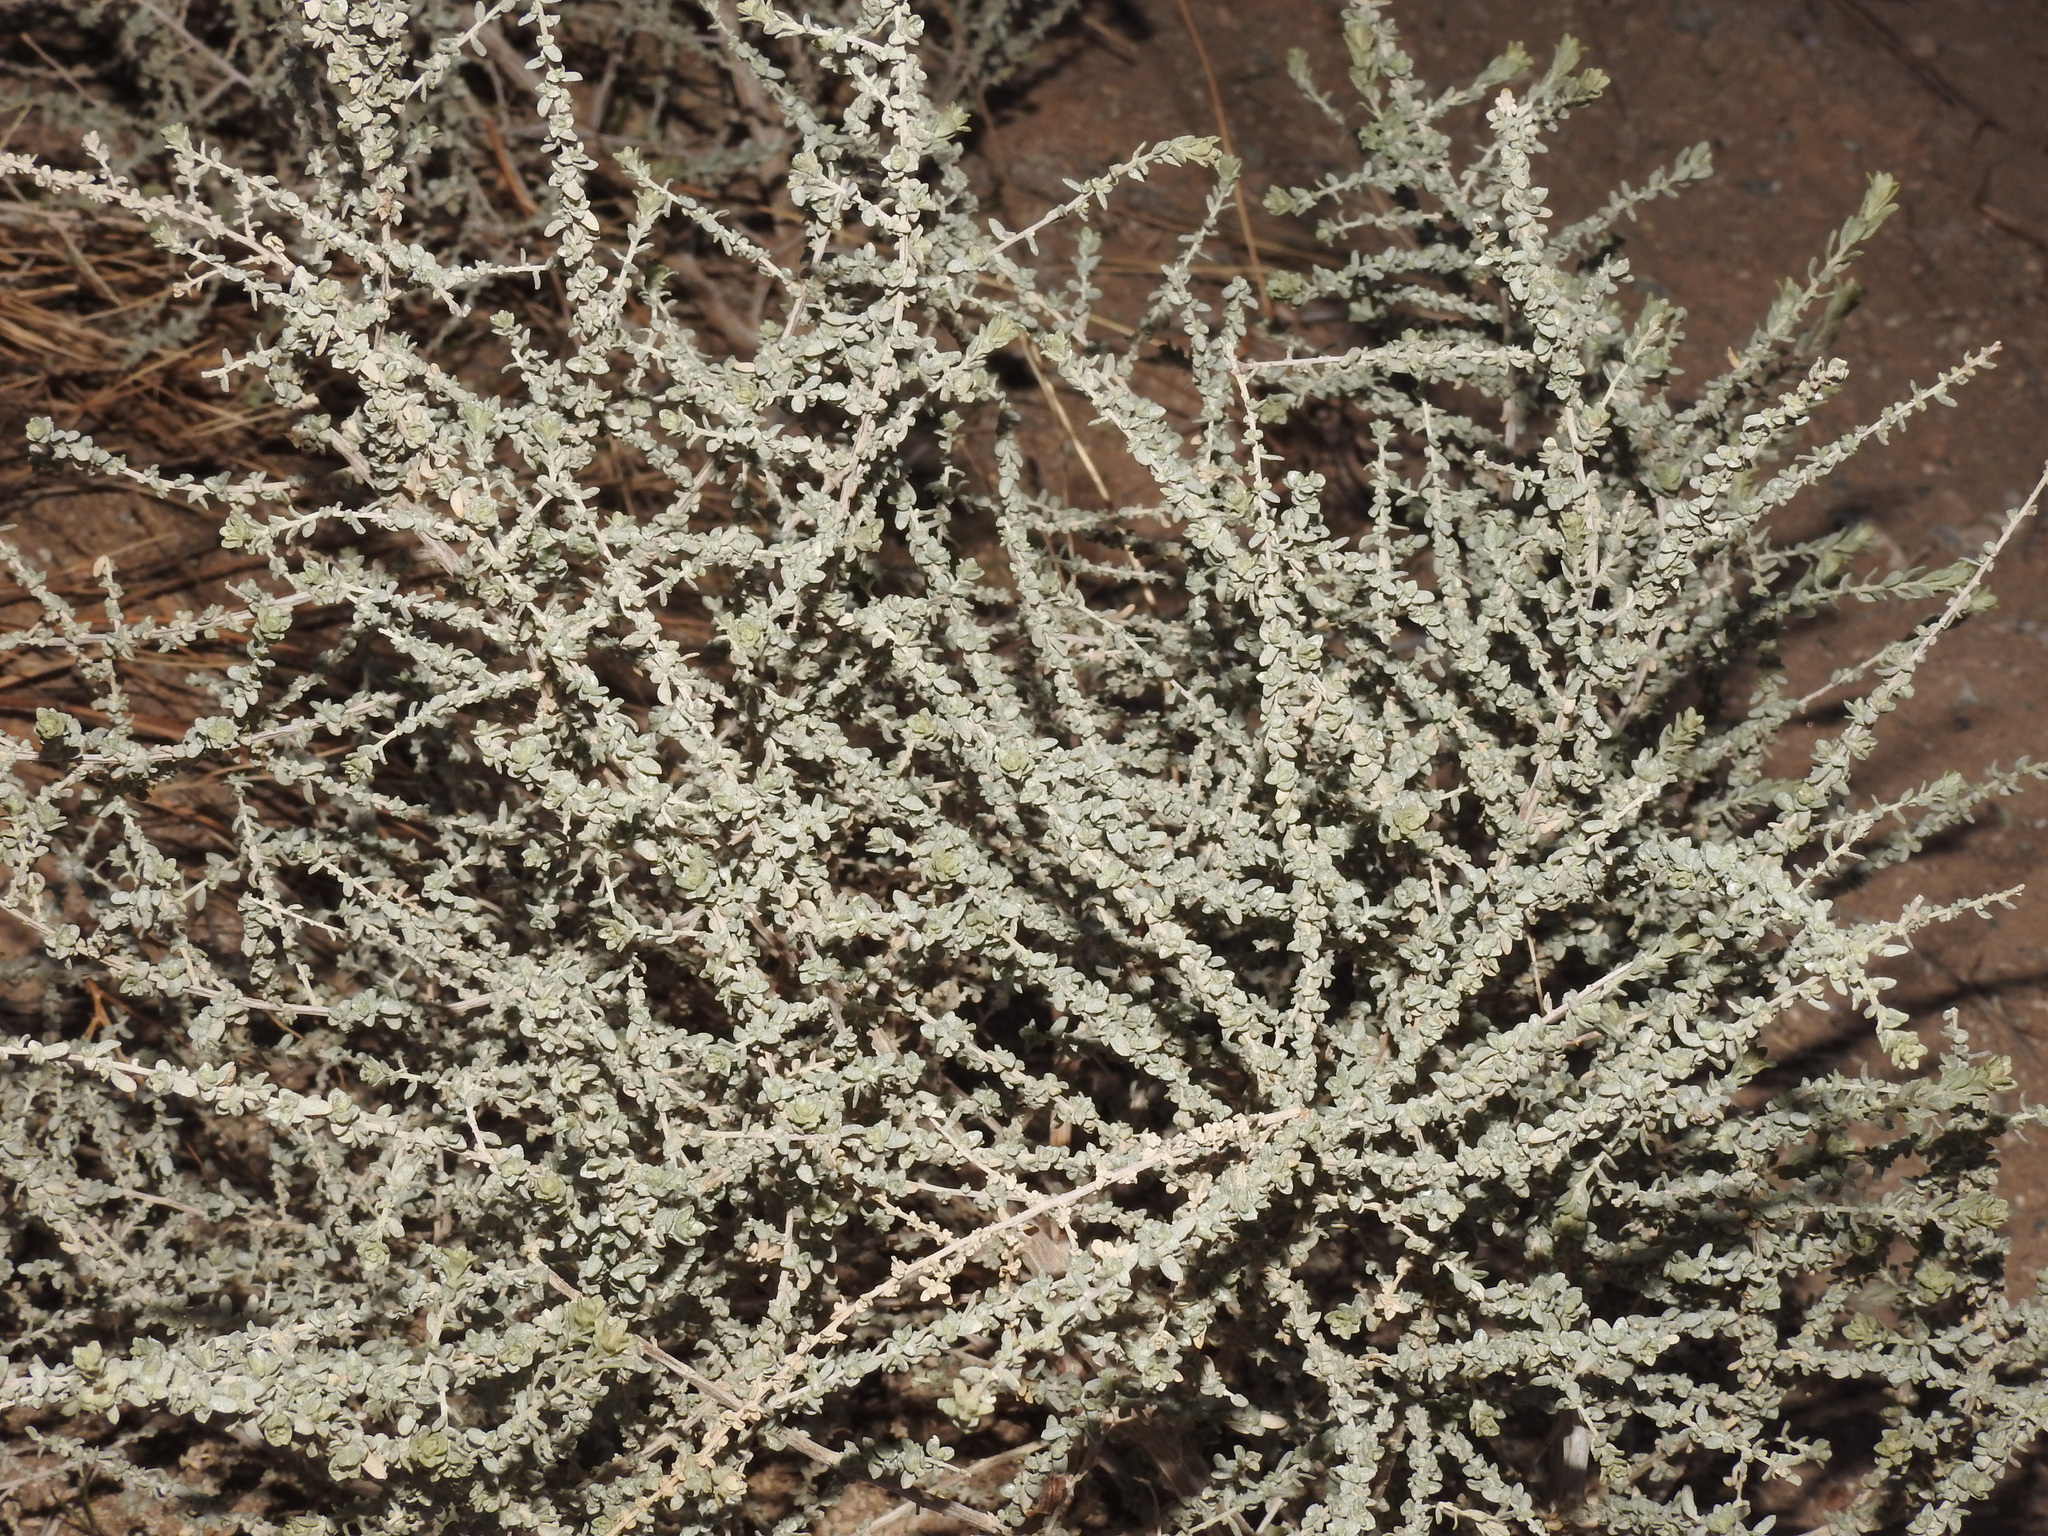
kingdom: Plantae
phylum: Tracheophyta
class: Magnoliopsida
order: Caryophyllales
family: Amaranthaceae
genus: Atriplex
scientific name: Atriplex polycarpa
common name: Desert saltbush
